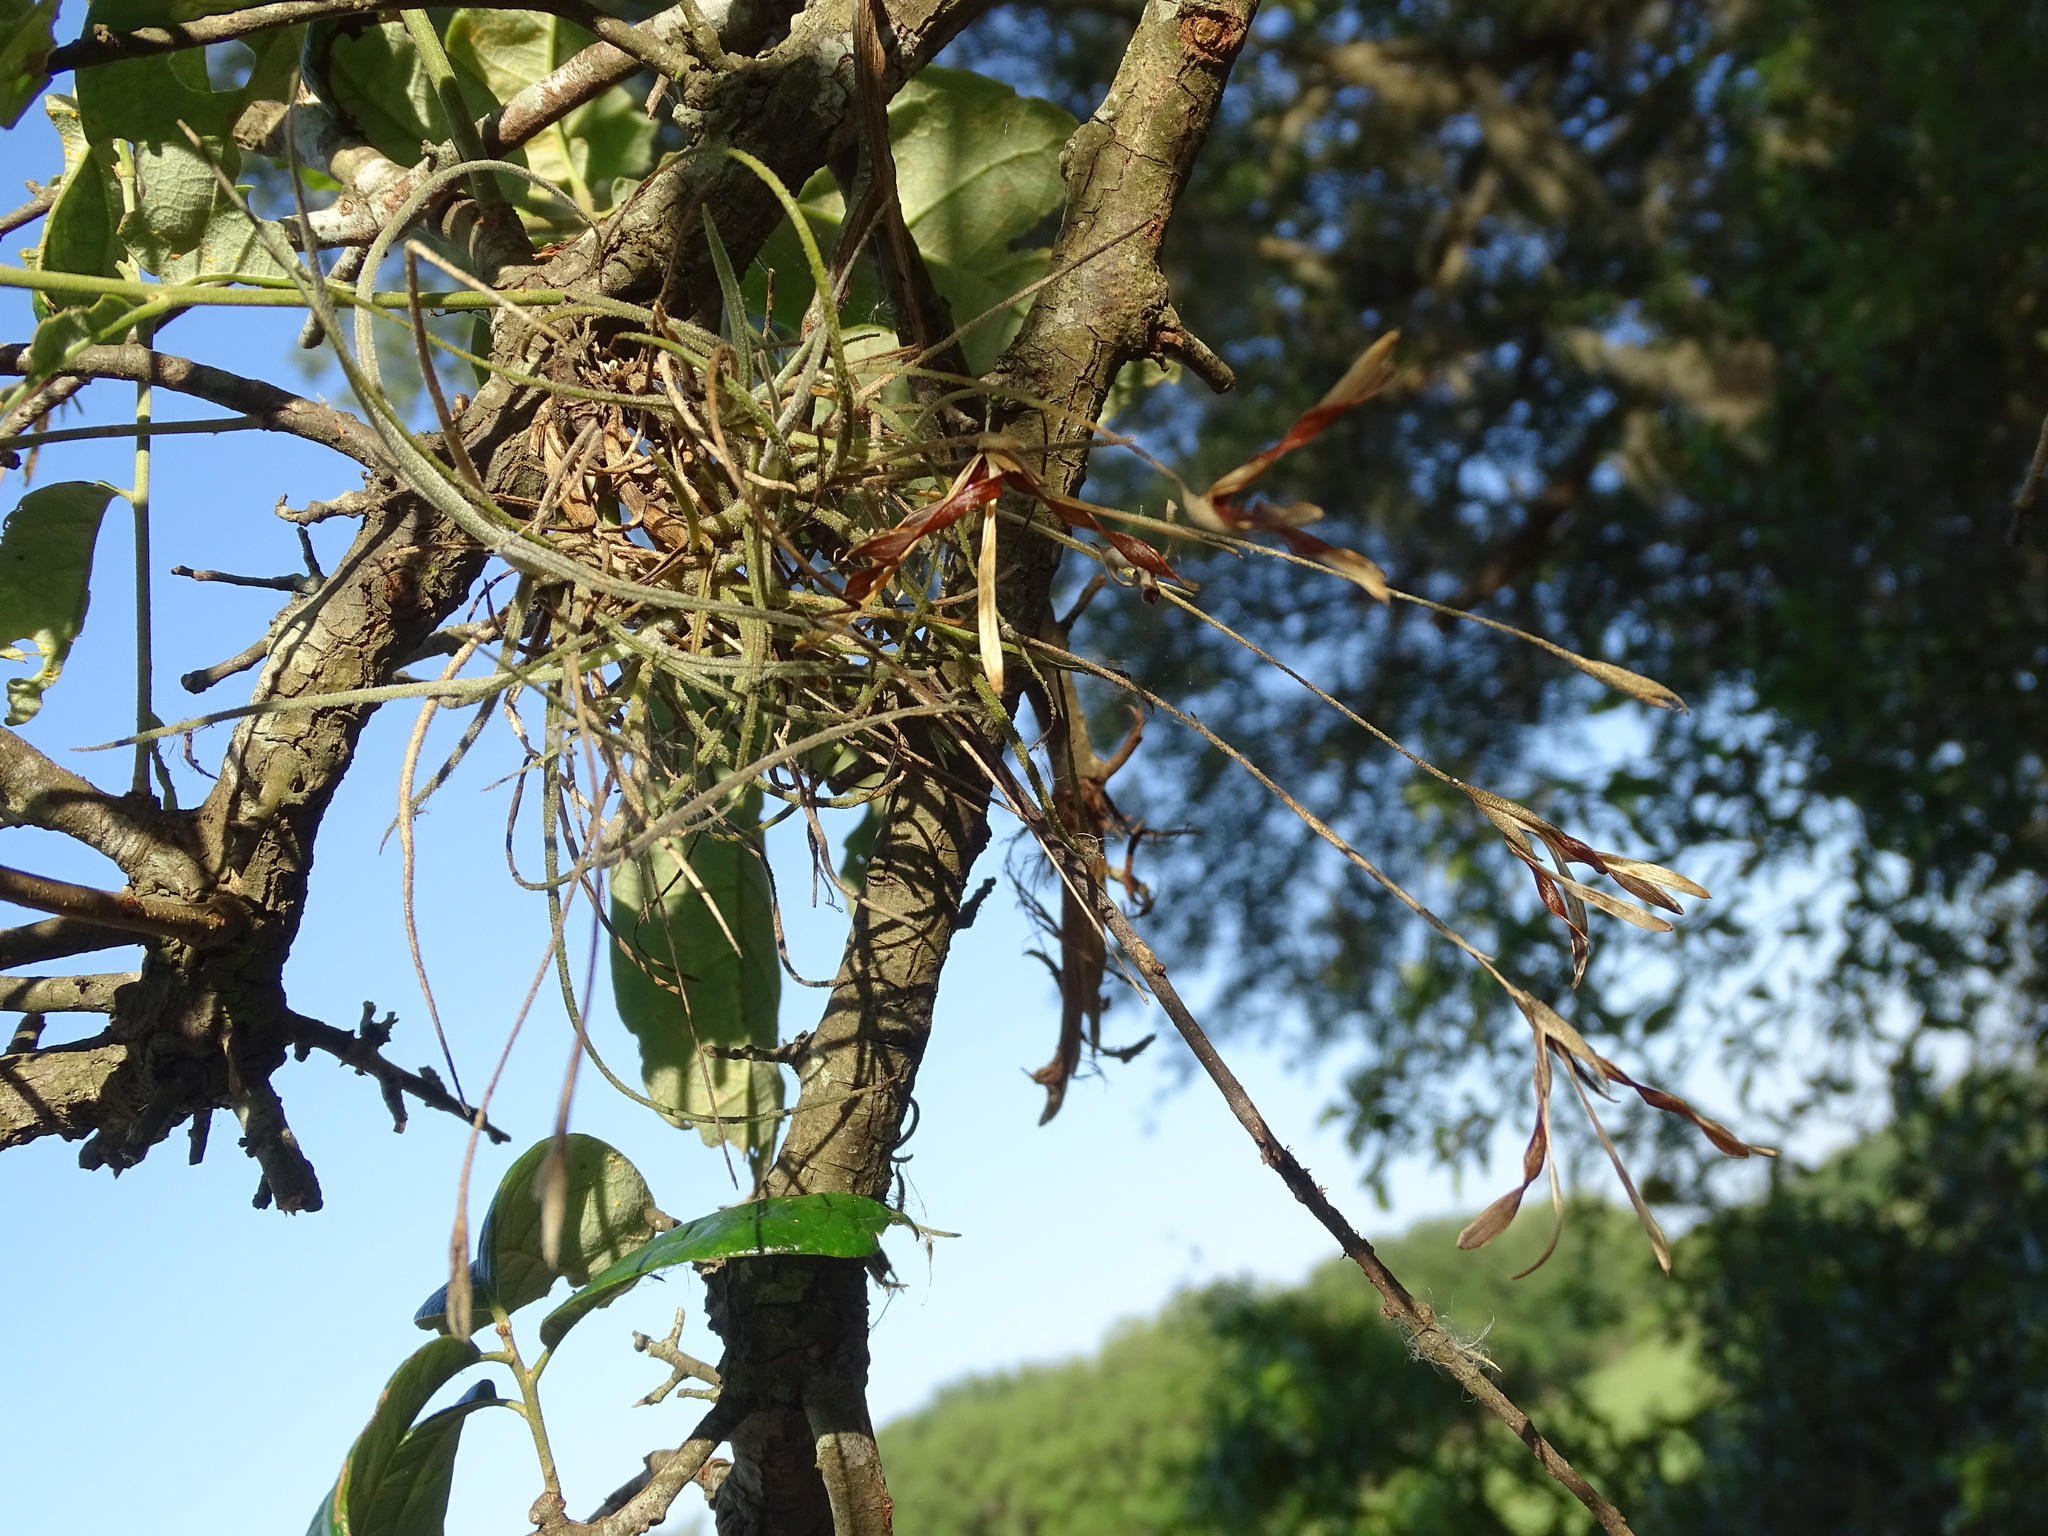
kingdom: Plantae
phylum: Tracheophyta
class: Liliopsida
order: Poales
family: Bromeliaceae
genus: Tillandsia
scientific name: Tillandsia recurvata
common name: Small ballmoss
